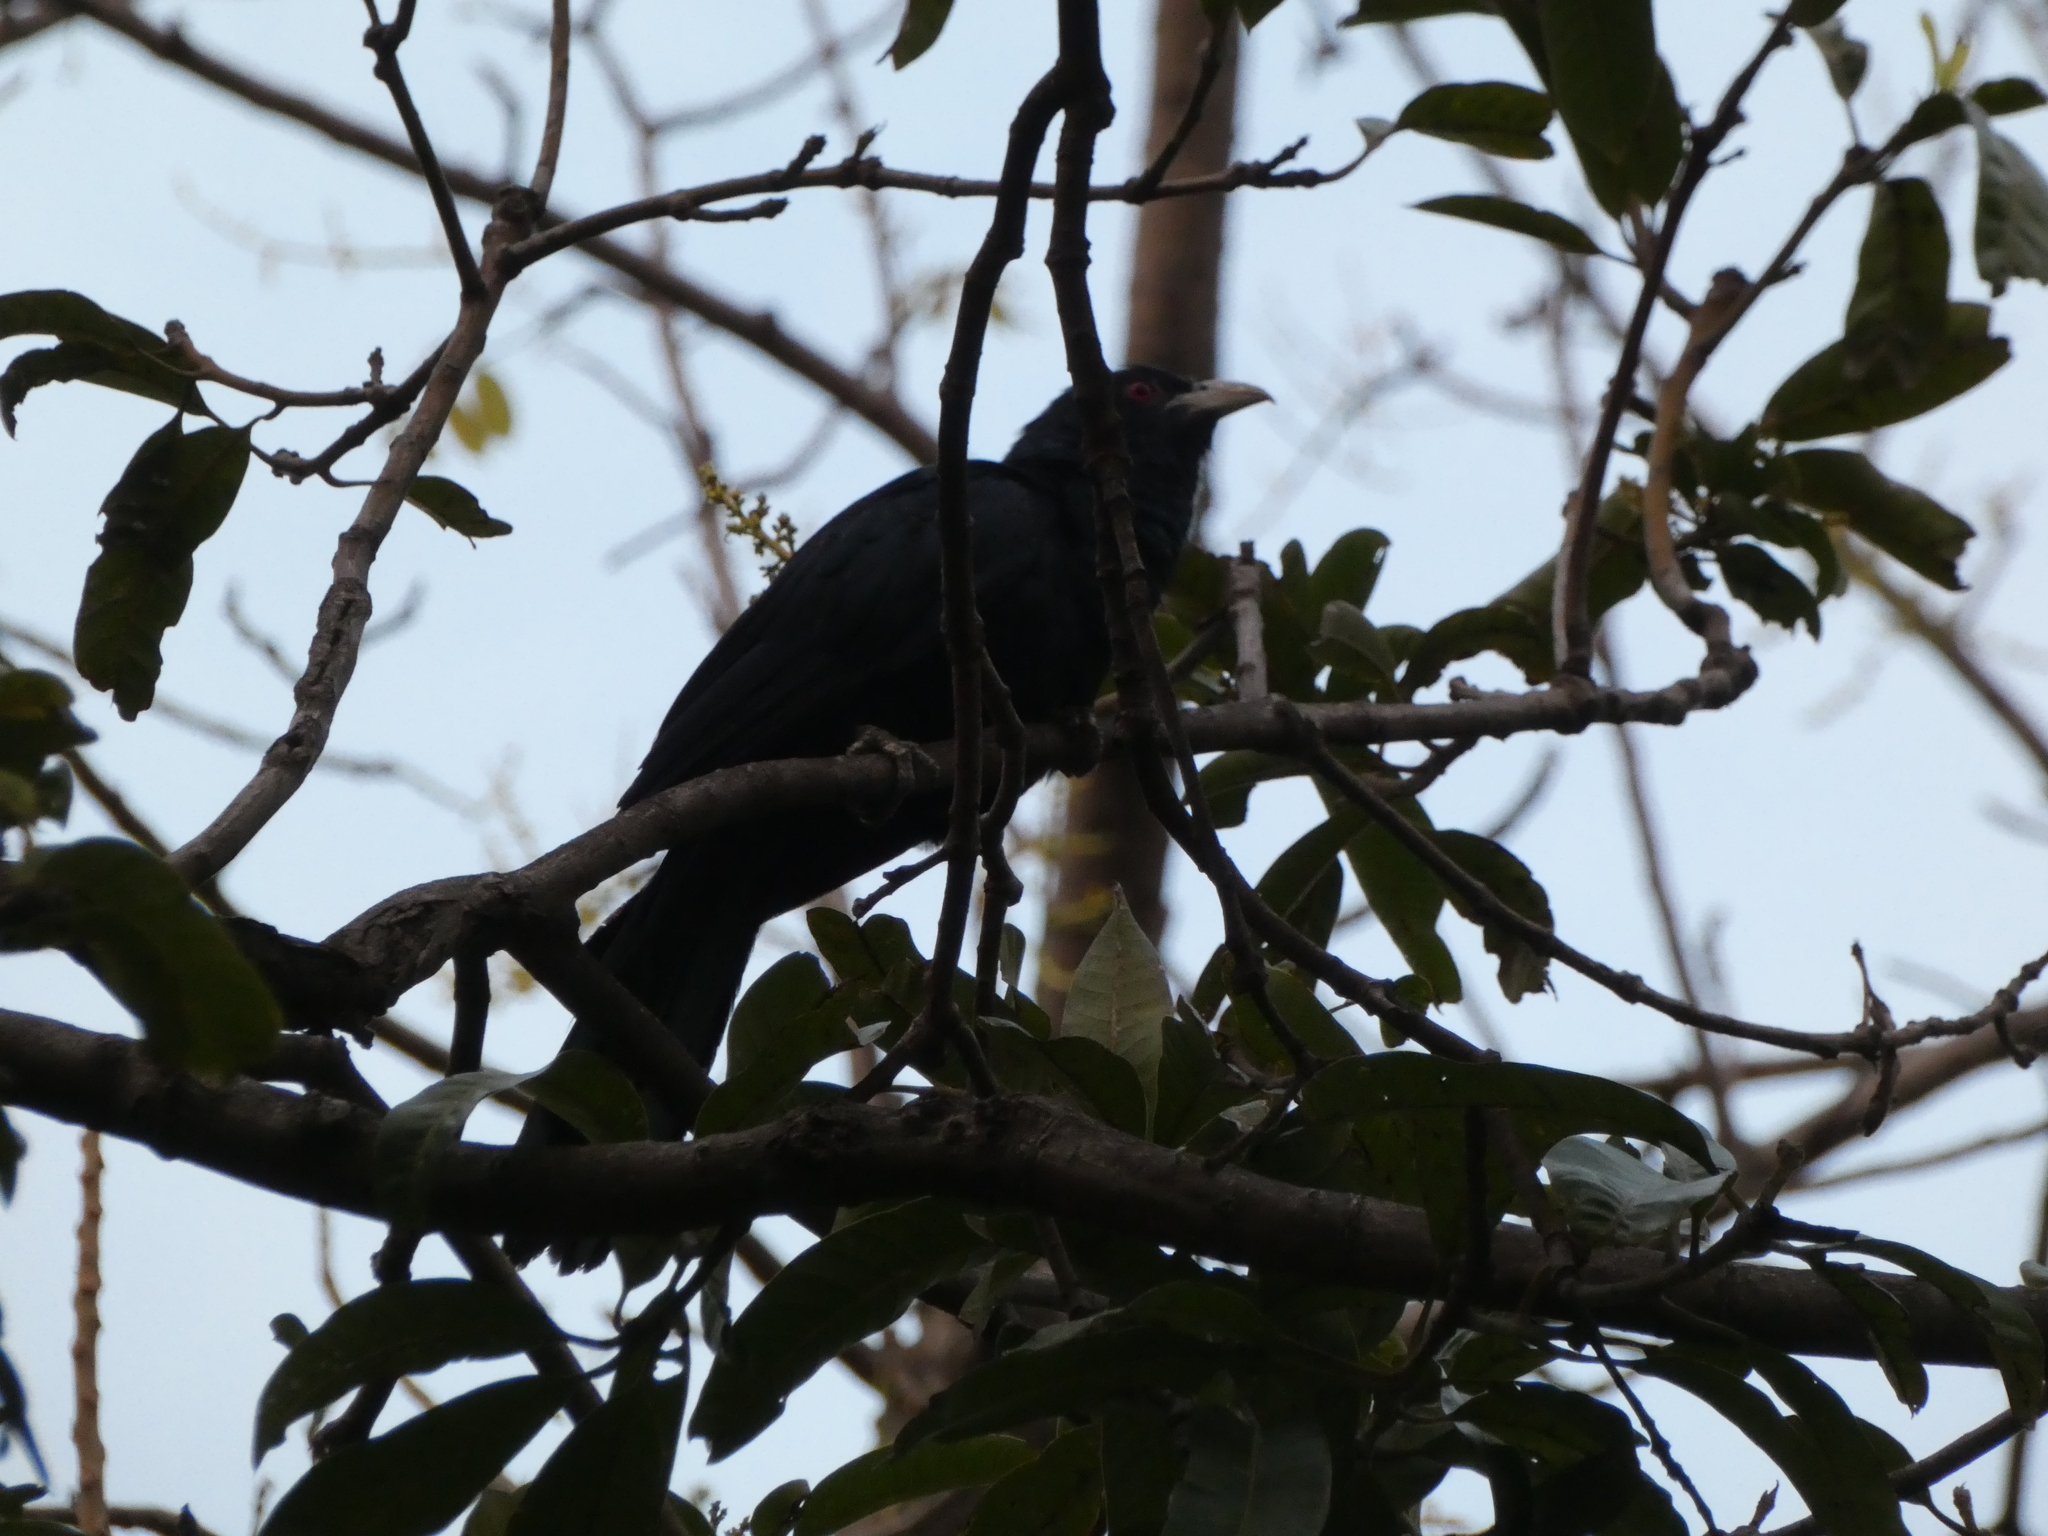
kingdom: Animalia
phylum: Chordata
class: Aves
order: Cuculiformes
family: Cuculidae
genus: Eudynamys
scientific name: Eudynamys scolopaceus
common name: Asian koel
